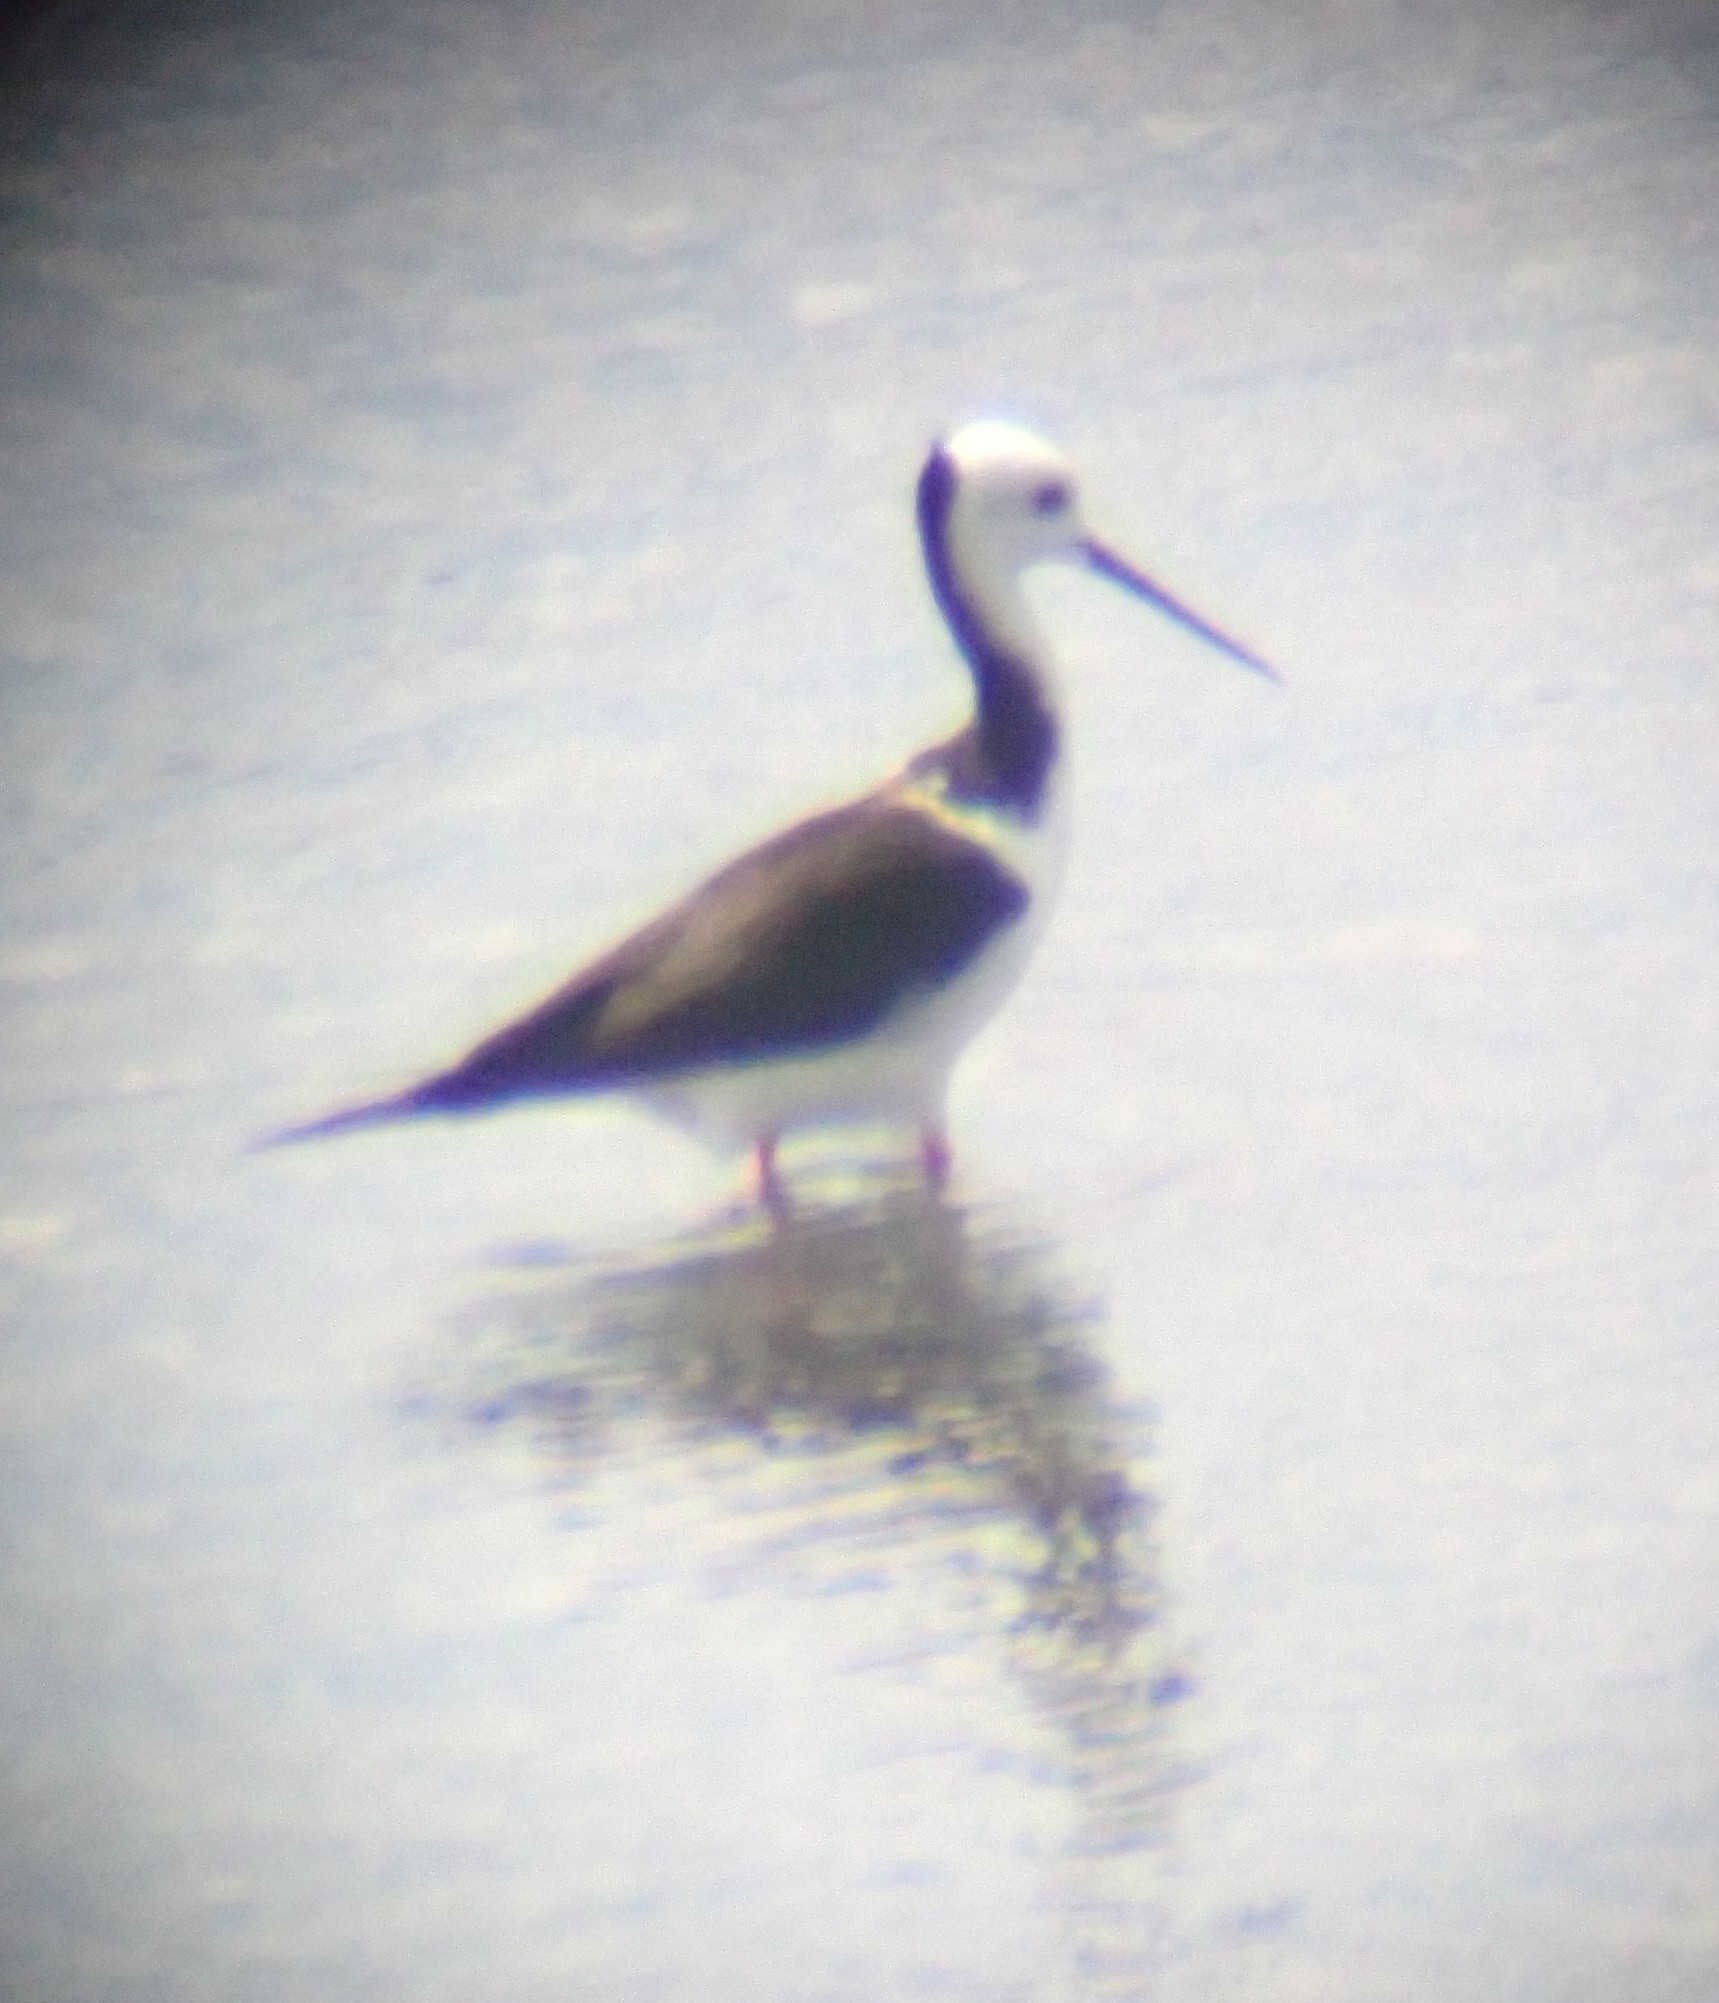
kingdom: Animalia
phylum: Chordata
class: Aves
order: Charadriiformes
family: Recurvirostridae
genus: Himantopus
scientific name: Himantopus leucocephalus
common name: White-headed stilt
